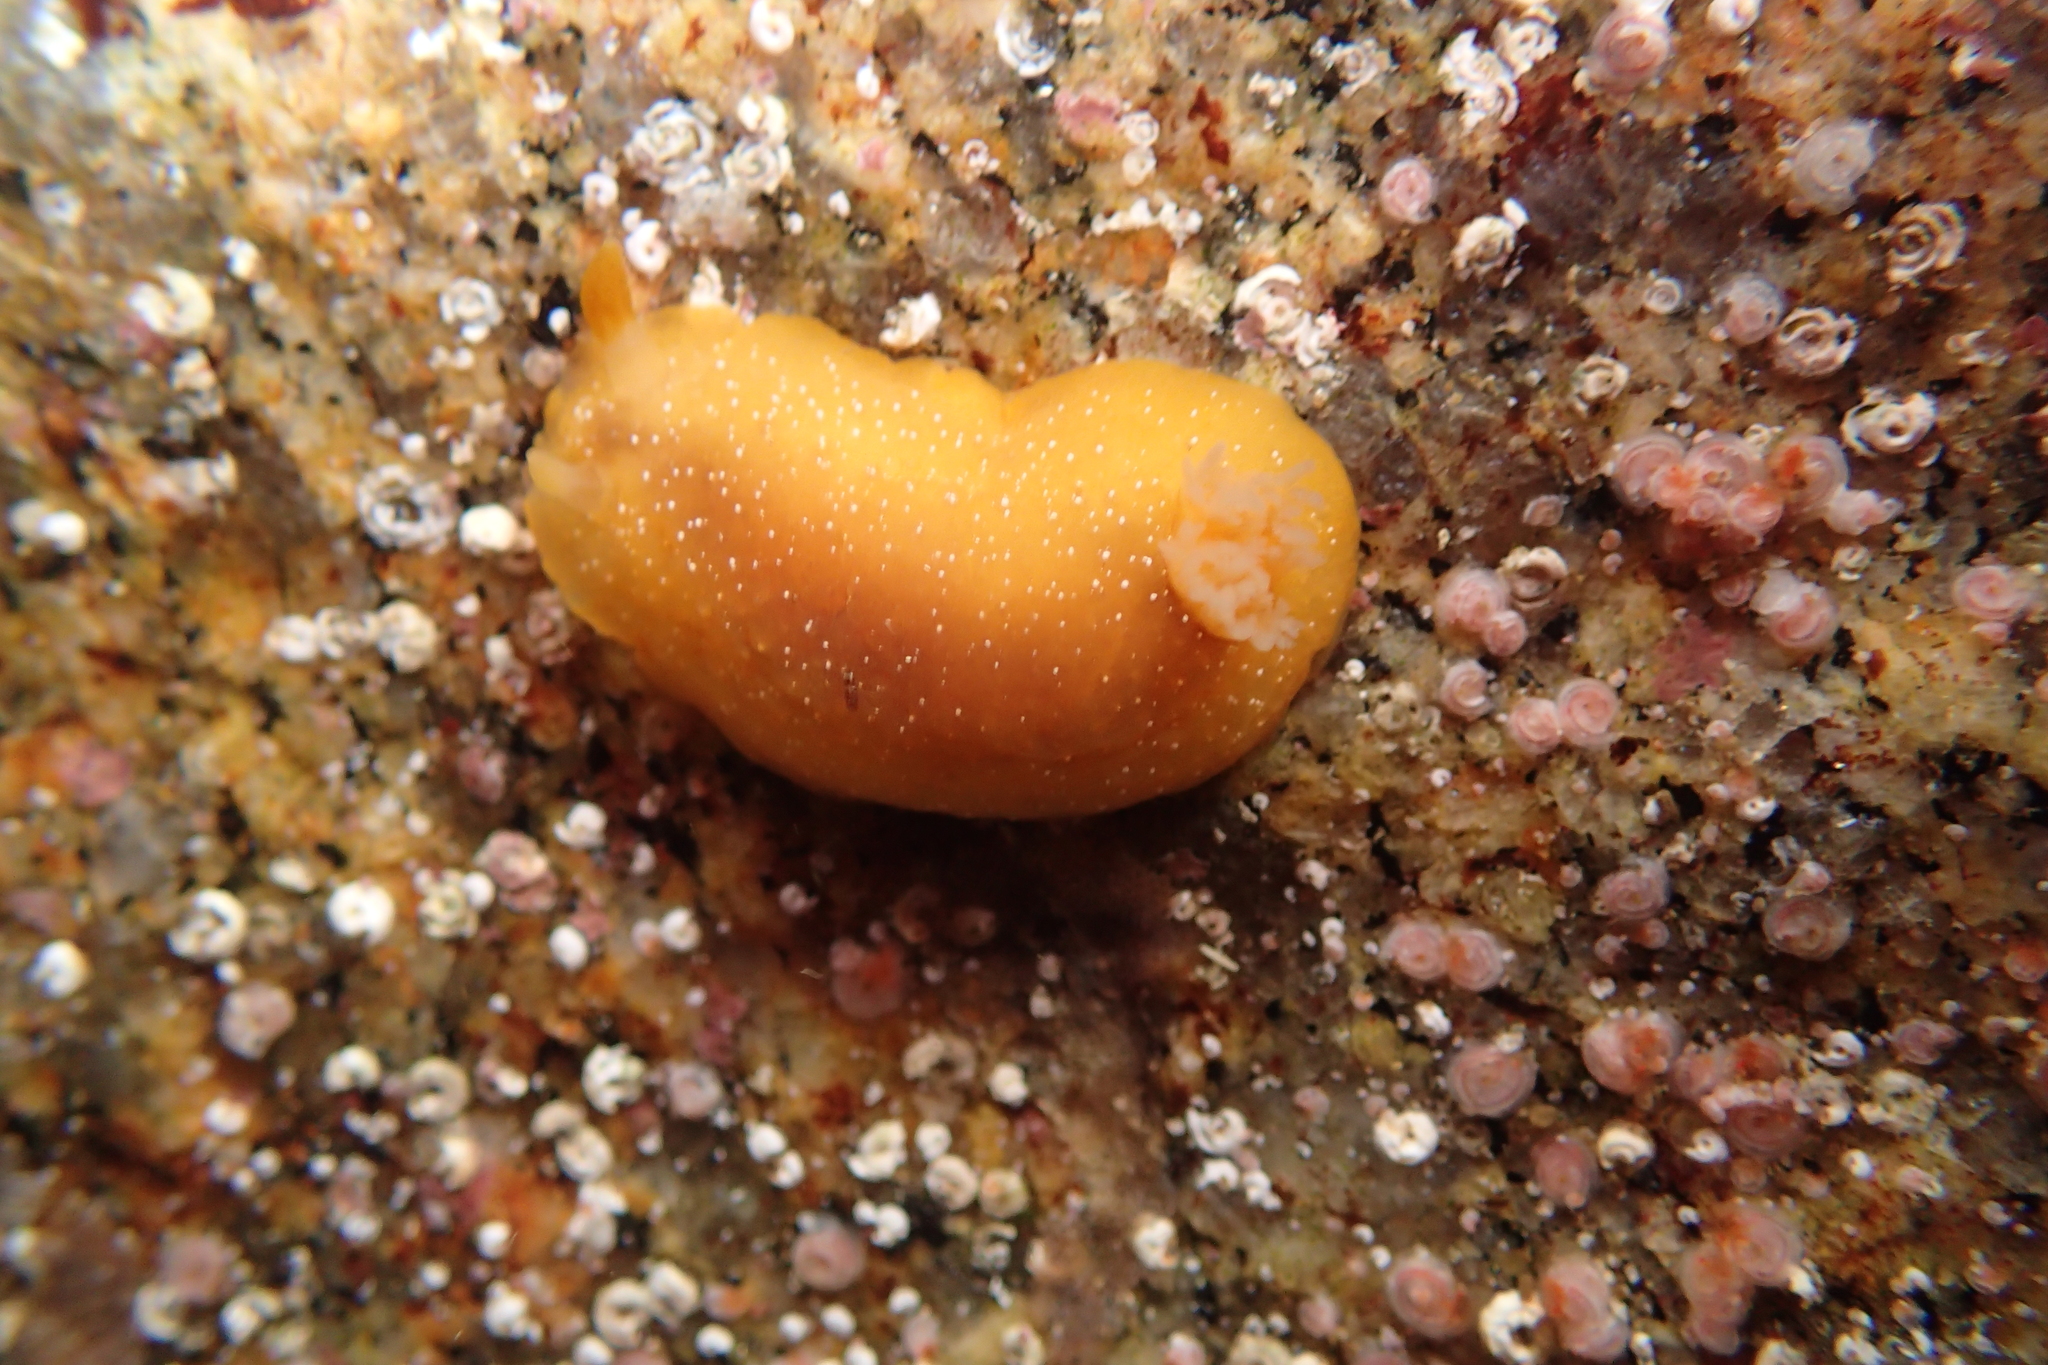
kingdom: Animalia
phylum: Mollusca
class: Gastropoda
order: Nudibranchia
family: Dendrodorididae
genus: Doriopsilla
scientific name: Doriopsilla fulva
